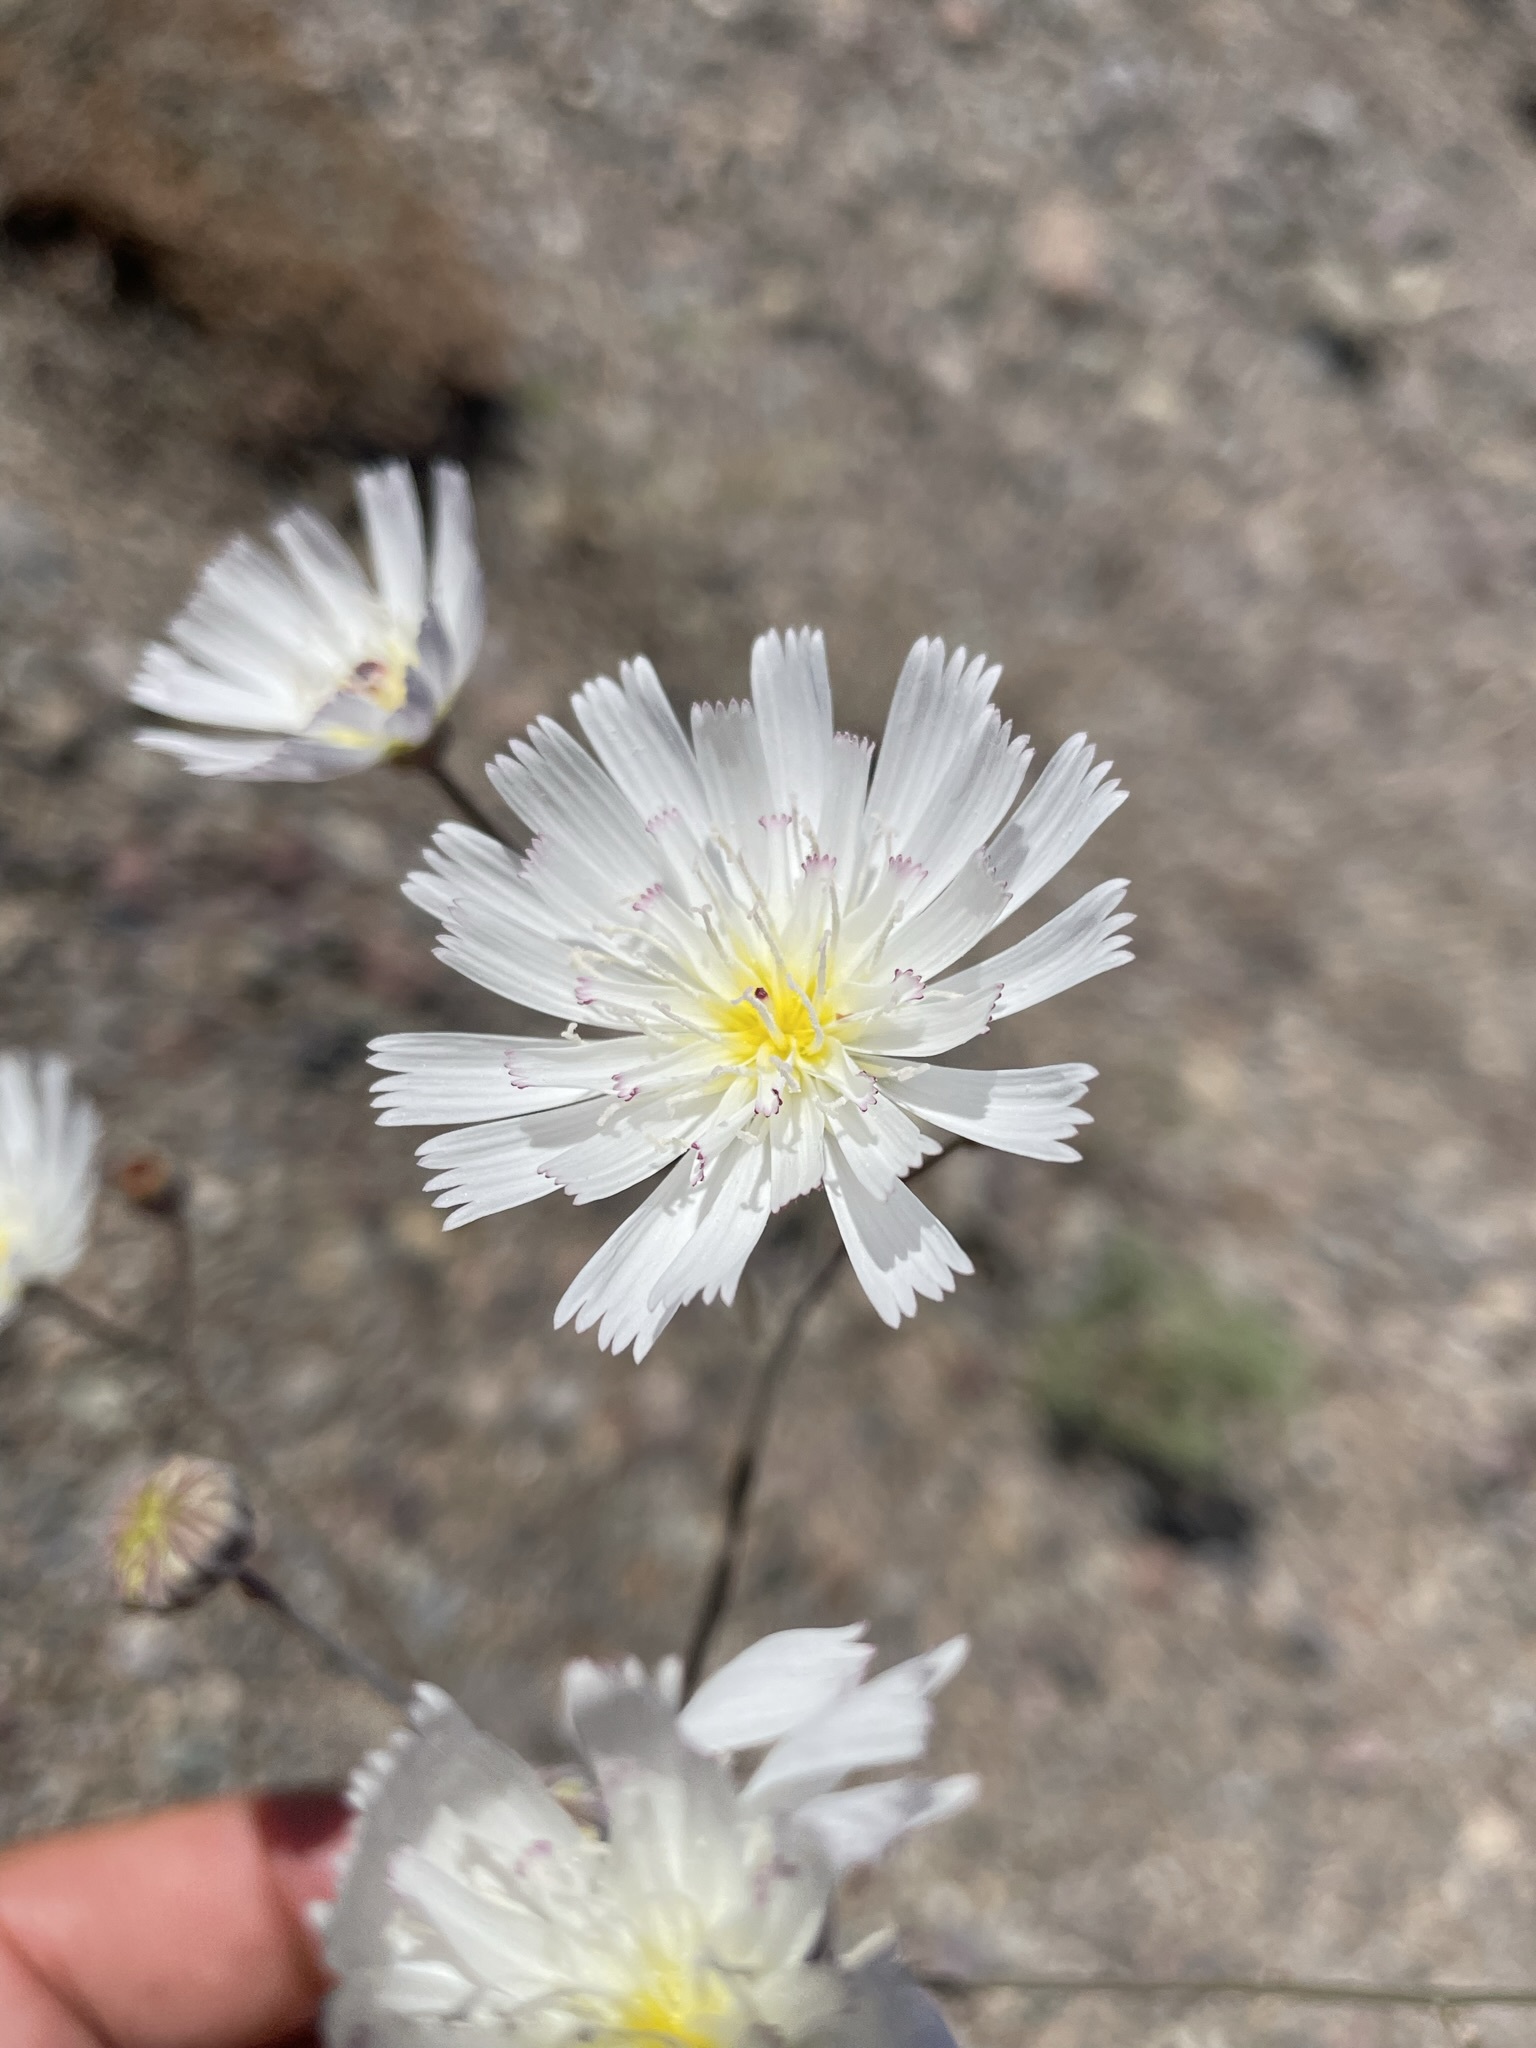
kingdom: Plantae
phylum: Tracheophyta
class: Magnoliopsida
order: Asterales
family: Asteraceae
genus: Atrichoseris
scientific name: Atrichoseris platyphylla
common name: Tobaccoweed
